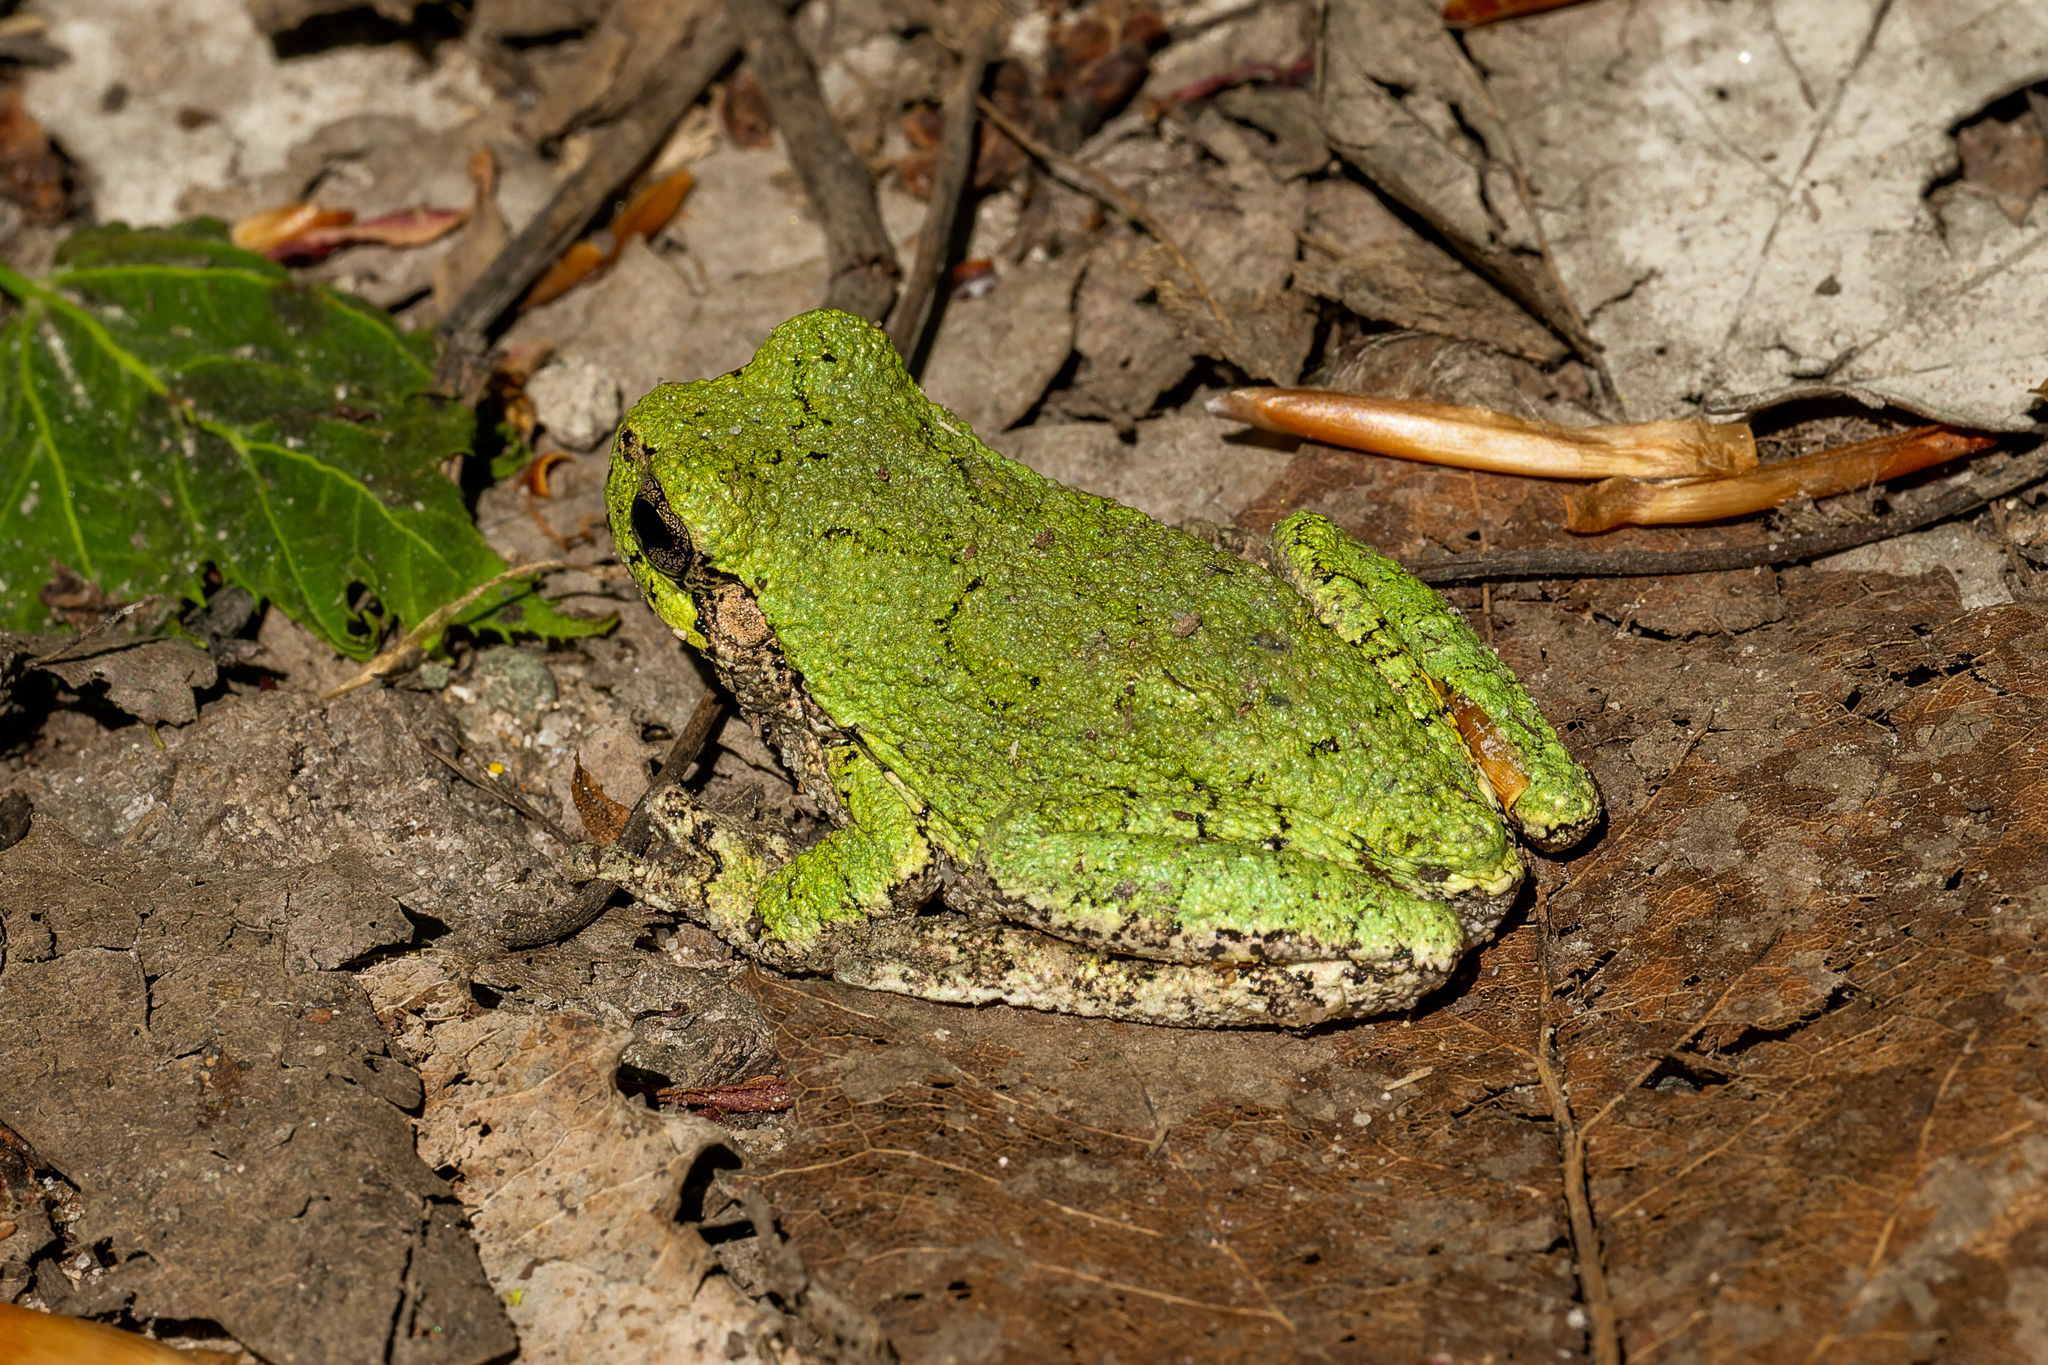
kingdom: Animalia
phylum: Chordata
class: Amphibia
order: Anura
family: Hylidae
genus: Hyla
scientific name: Hyla
